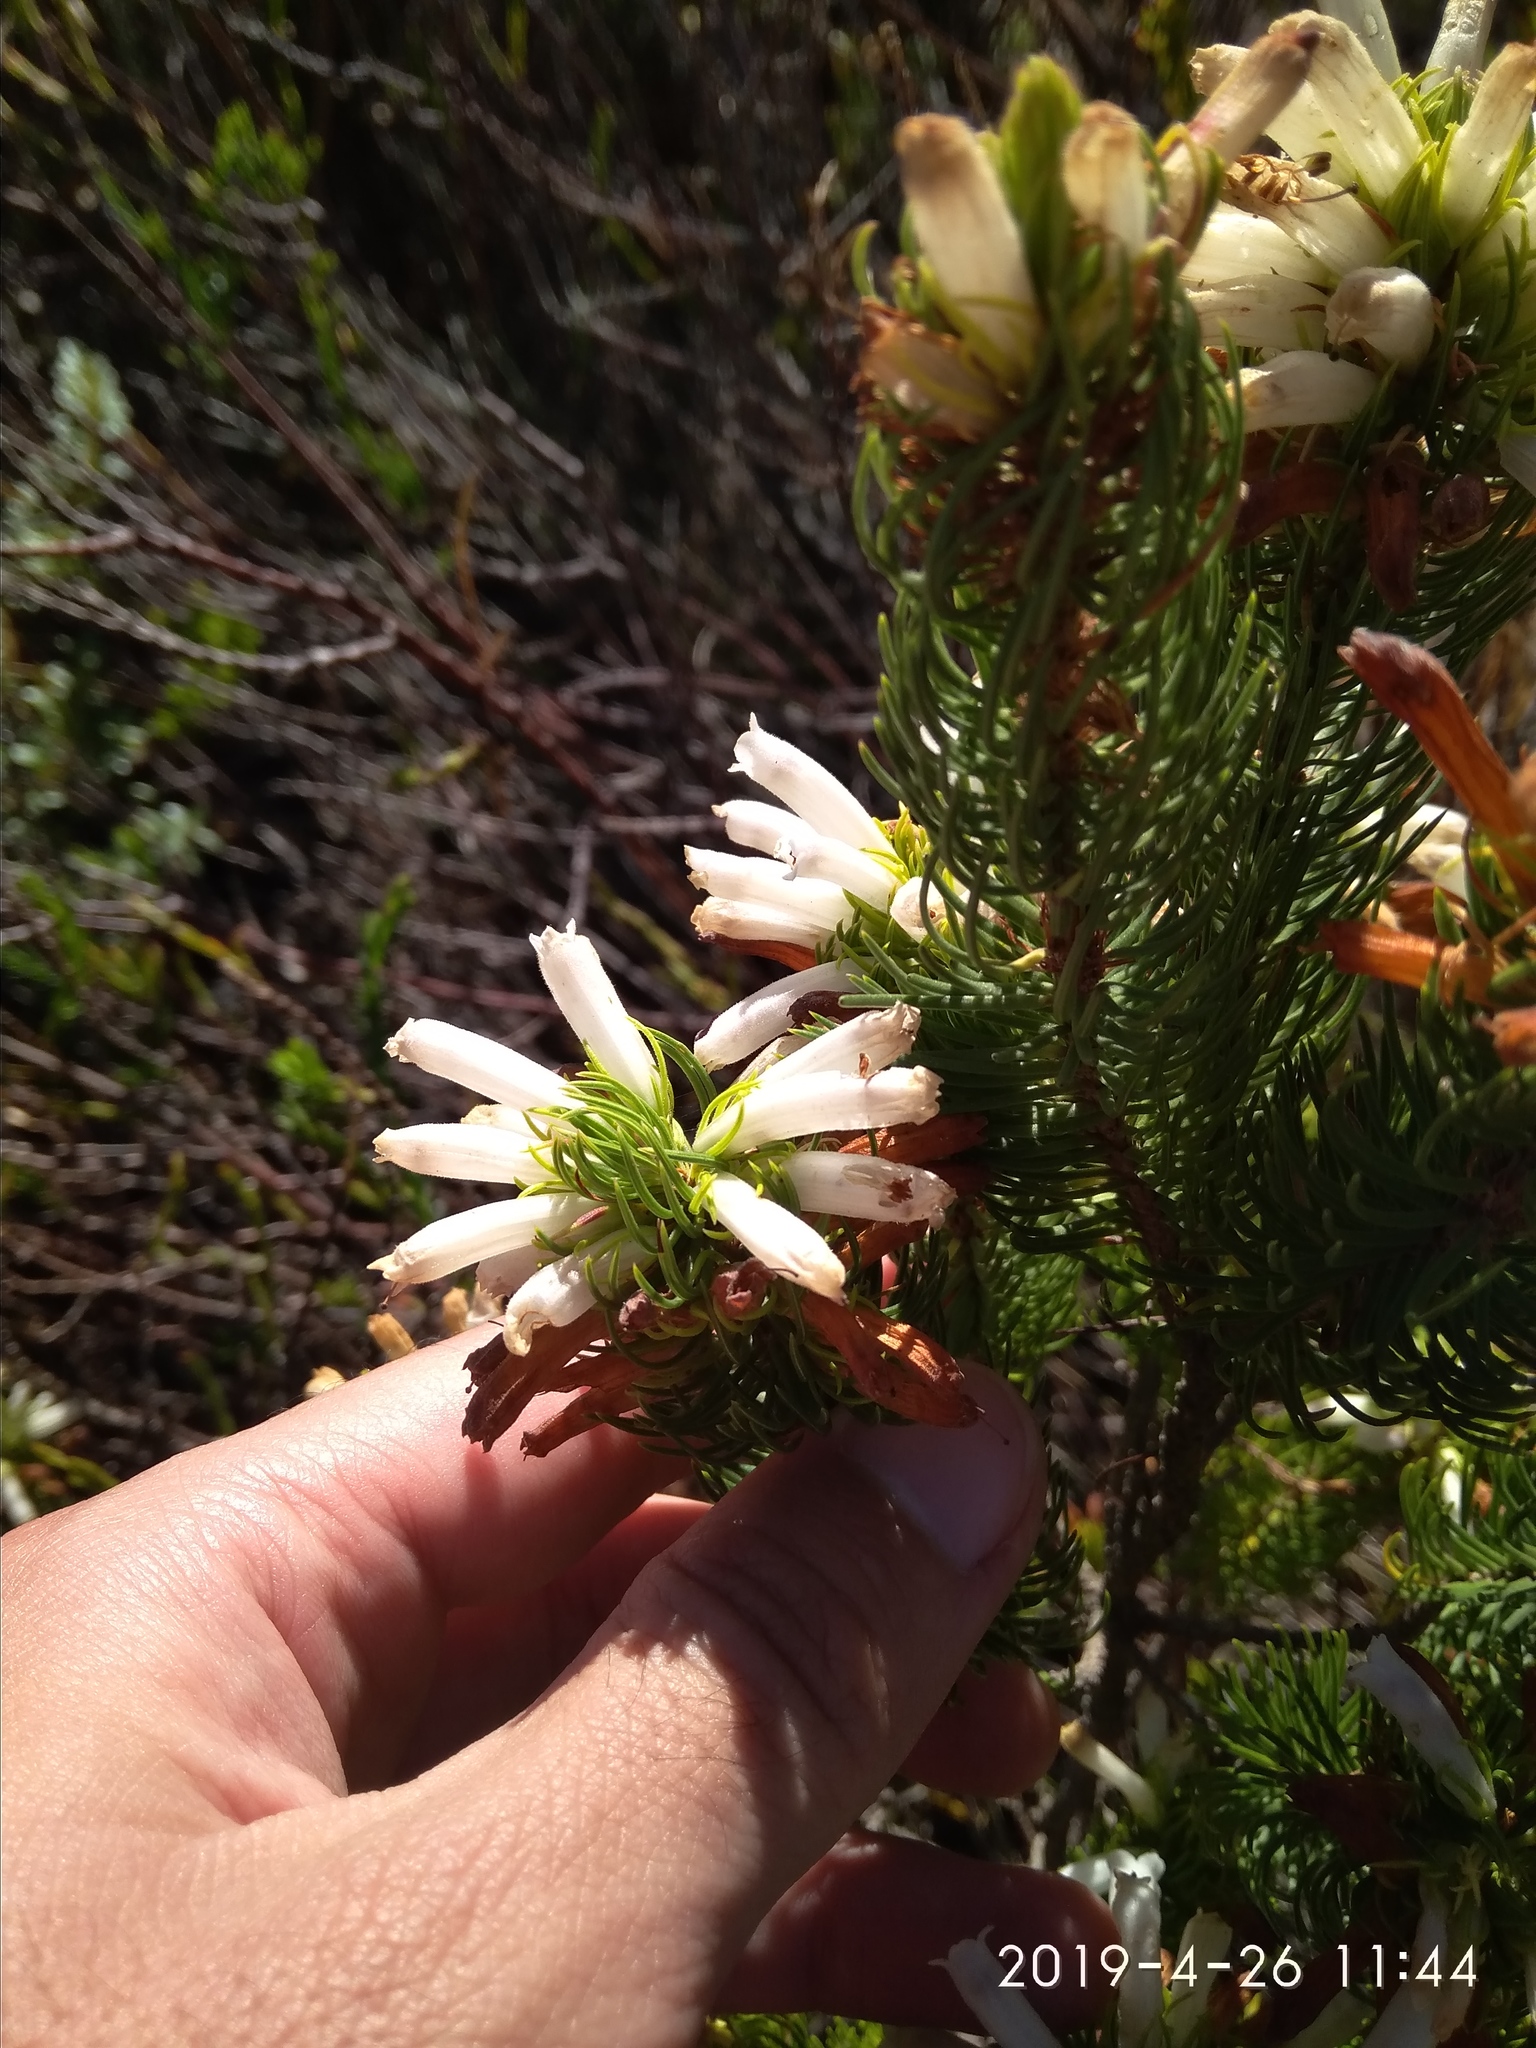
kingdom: Plantae
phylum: Tracheophyta
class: Magnoliopsida
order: Ericales
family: Ericaceae
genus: Erica
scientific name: Erica viscaria
